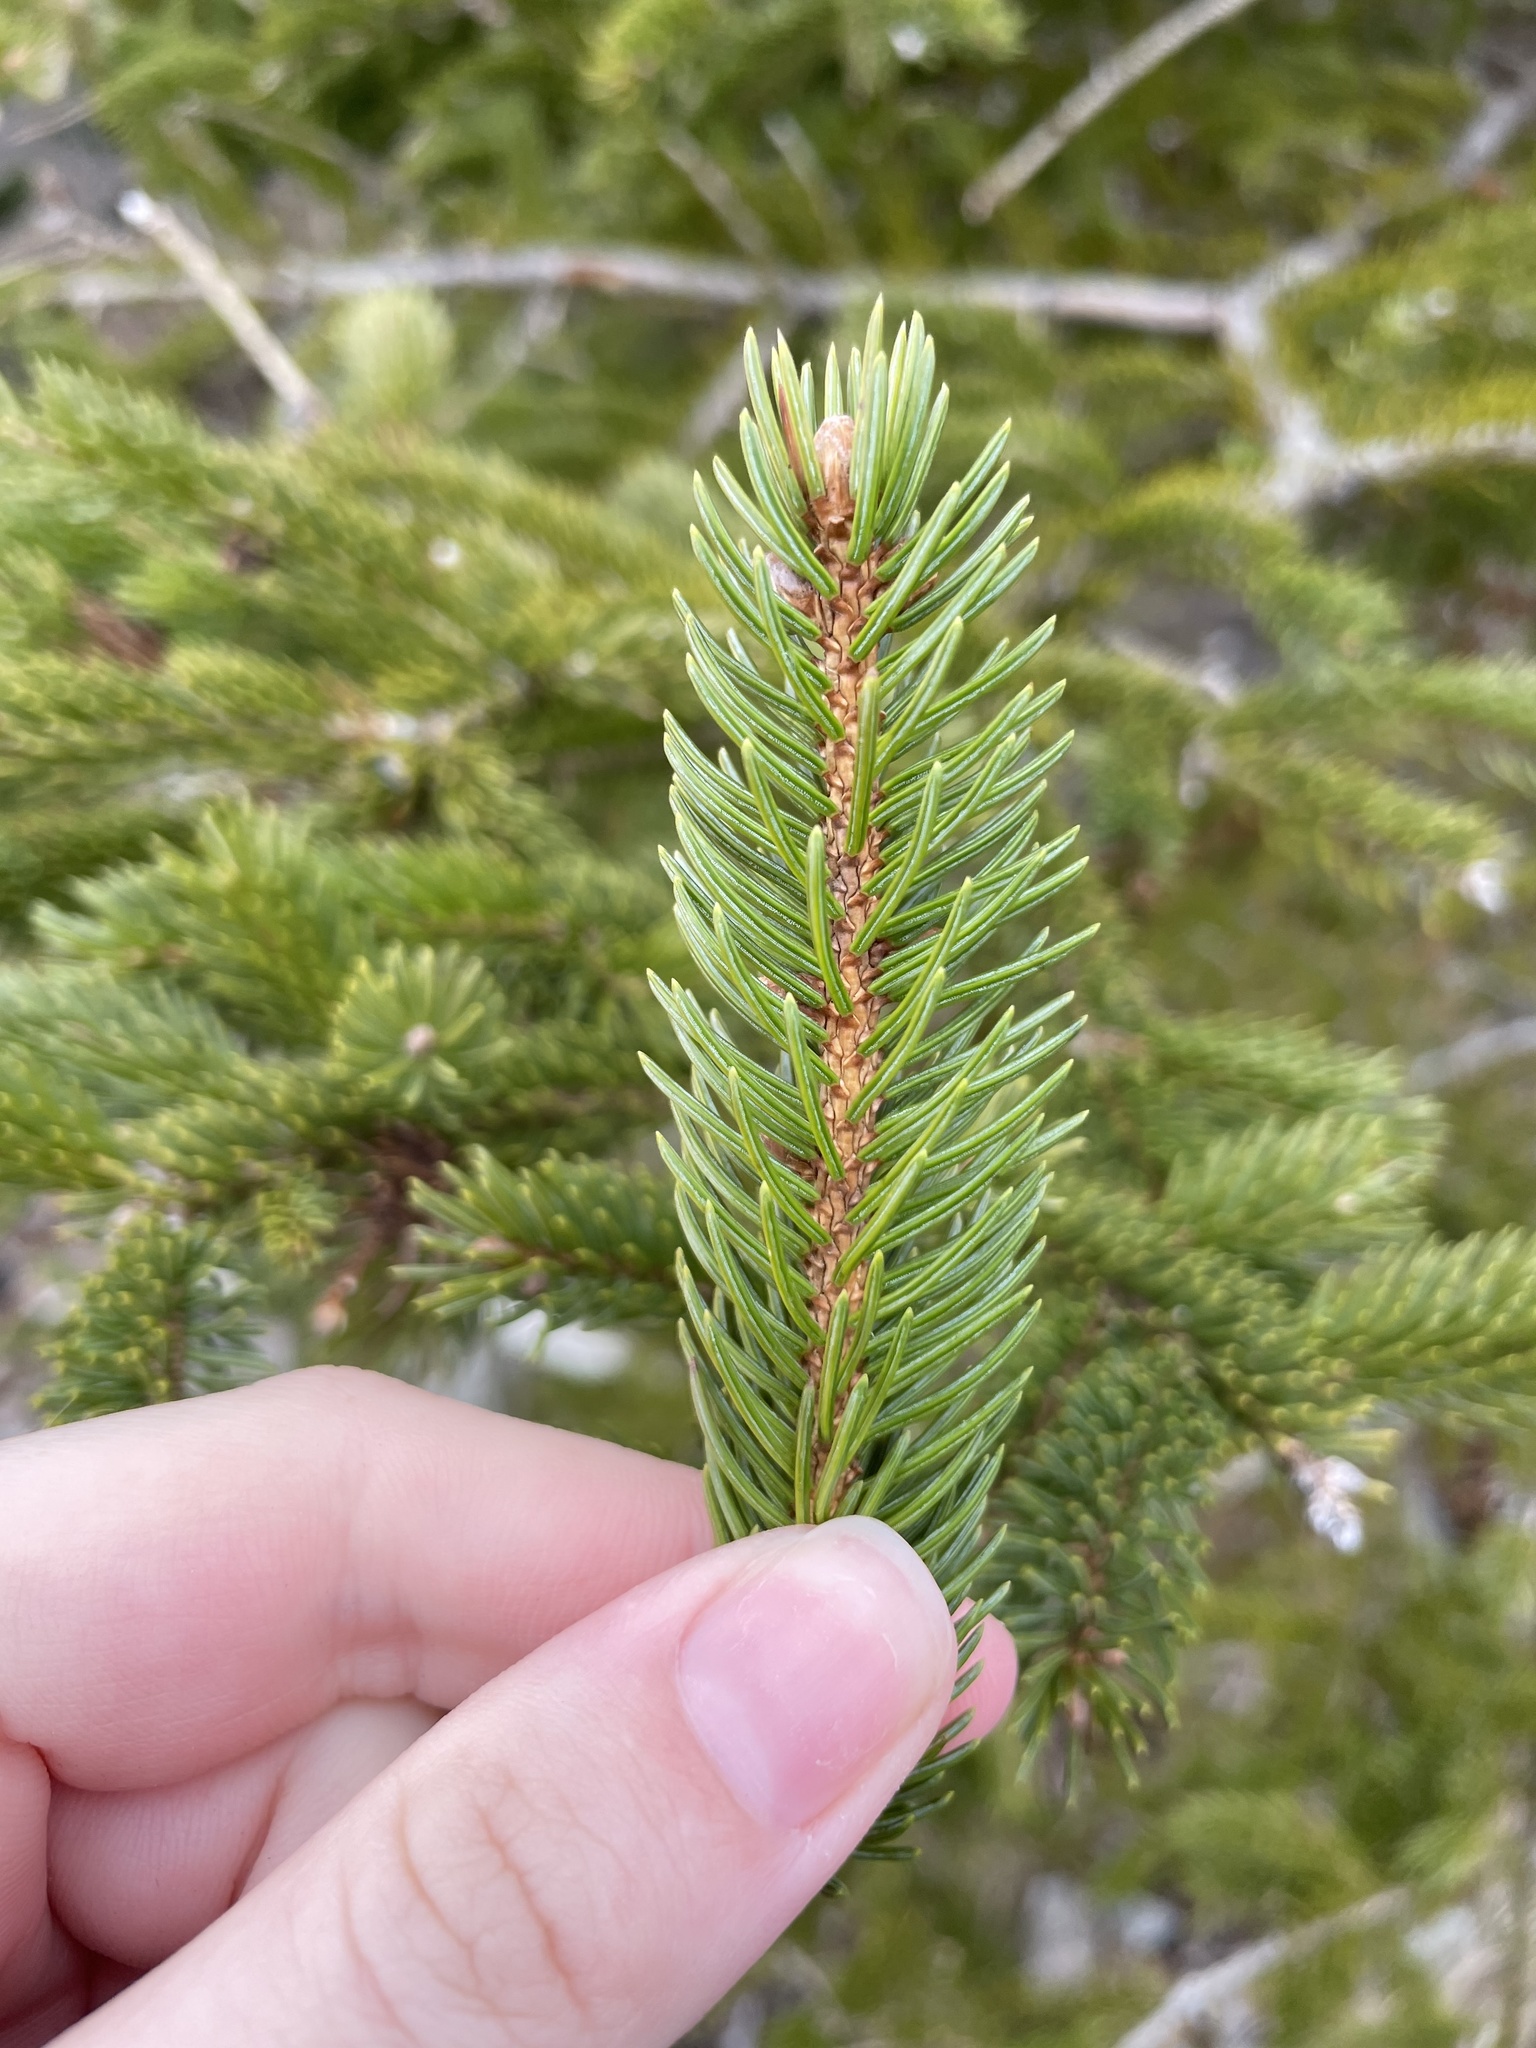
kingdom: Plantae
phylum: Tracheophyta
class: Pinopsida
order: Pinales
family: Pinaceae
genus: Picea
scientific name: Picea glauca
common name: White spruce
